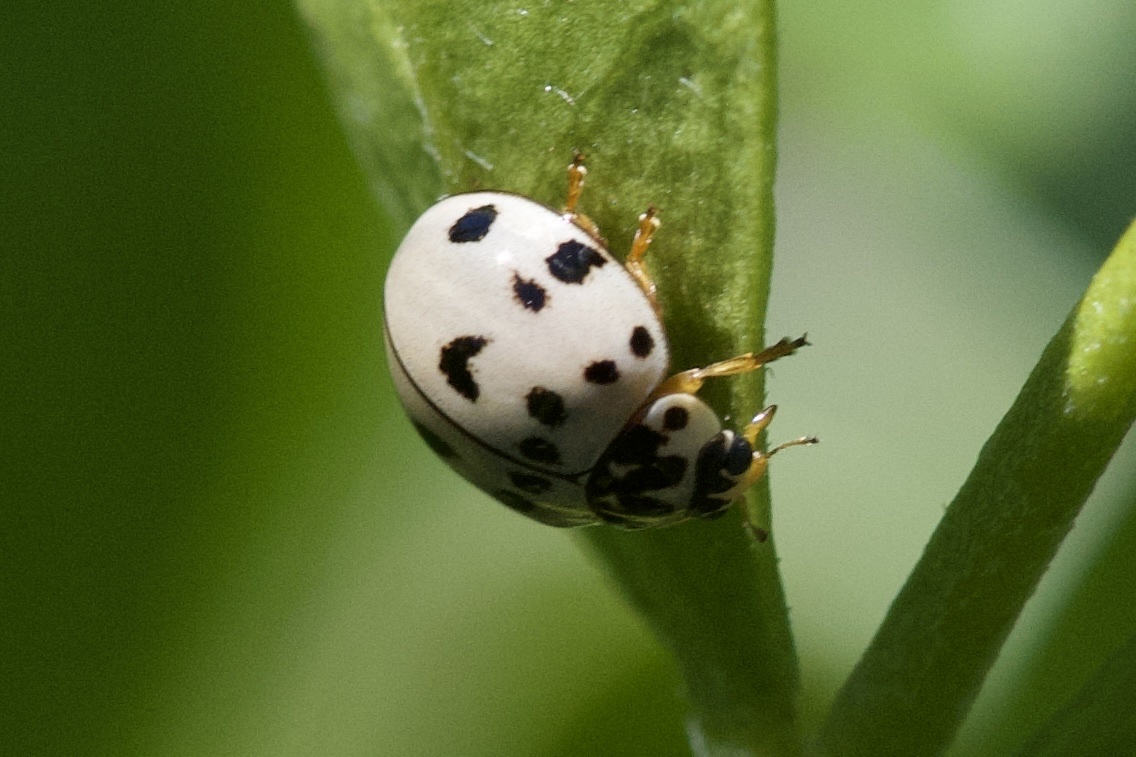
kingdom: Animalia
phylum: Arthropoda
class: Insecta
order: Coleoptera
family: Coccinellidae
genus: Olla
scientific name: Olla v-nigrum
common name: Ashy gray lady beetle
